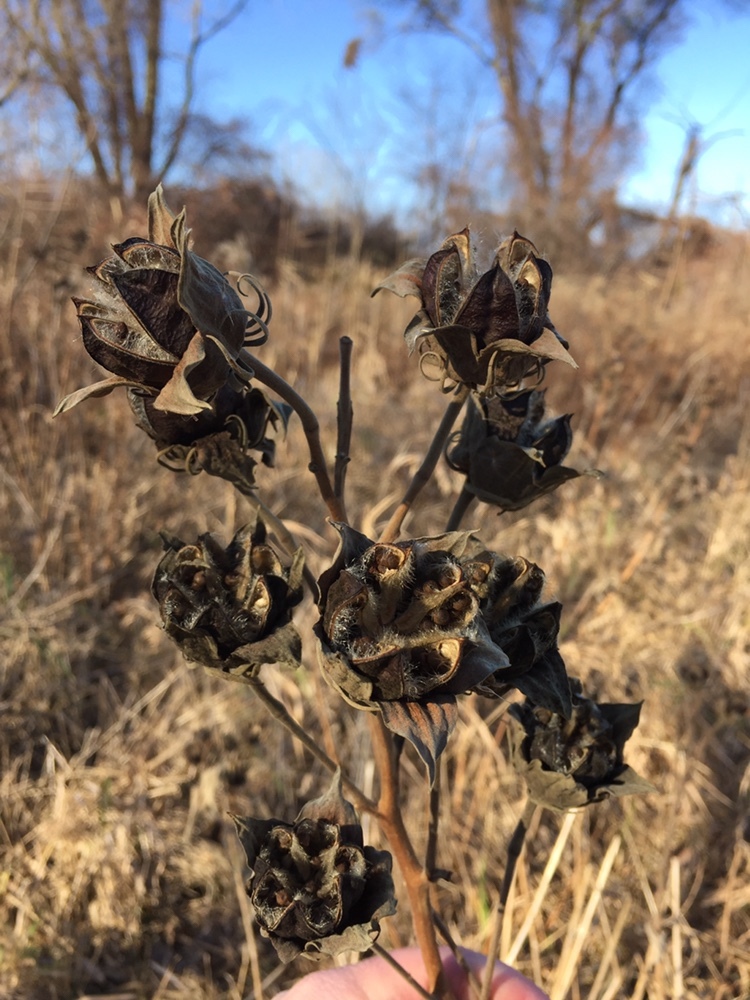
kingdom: Plantae
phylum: Tracheophyta
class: Magnoliopsida
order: Malvales
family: Malvaceae
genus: Hibiscus
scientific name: Hibiscus moscheutos
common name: Common rose-mallow
